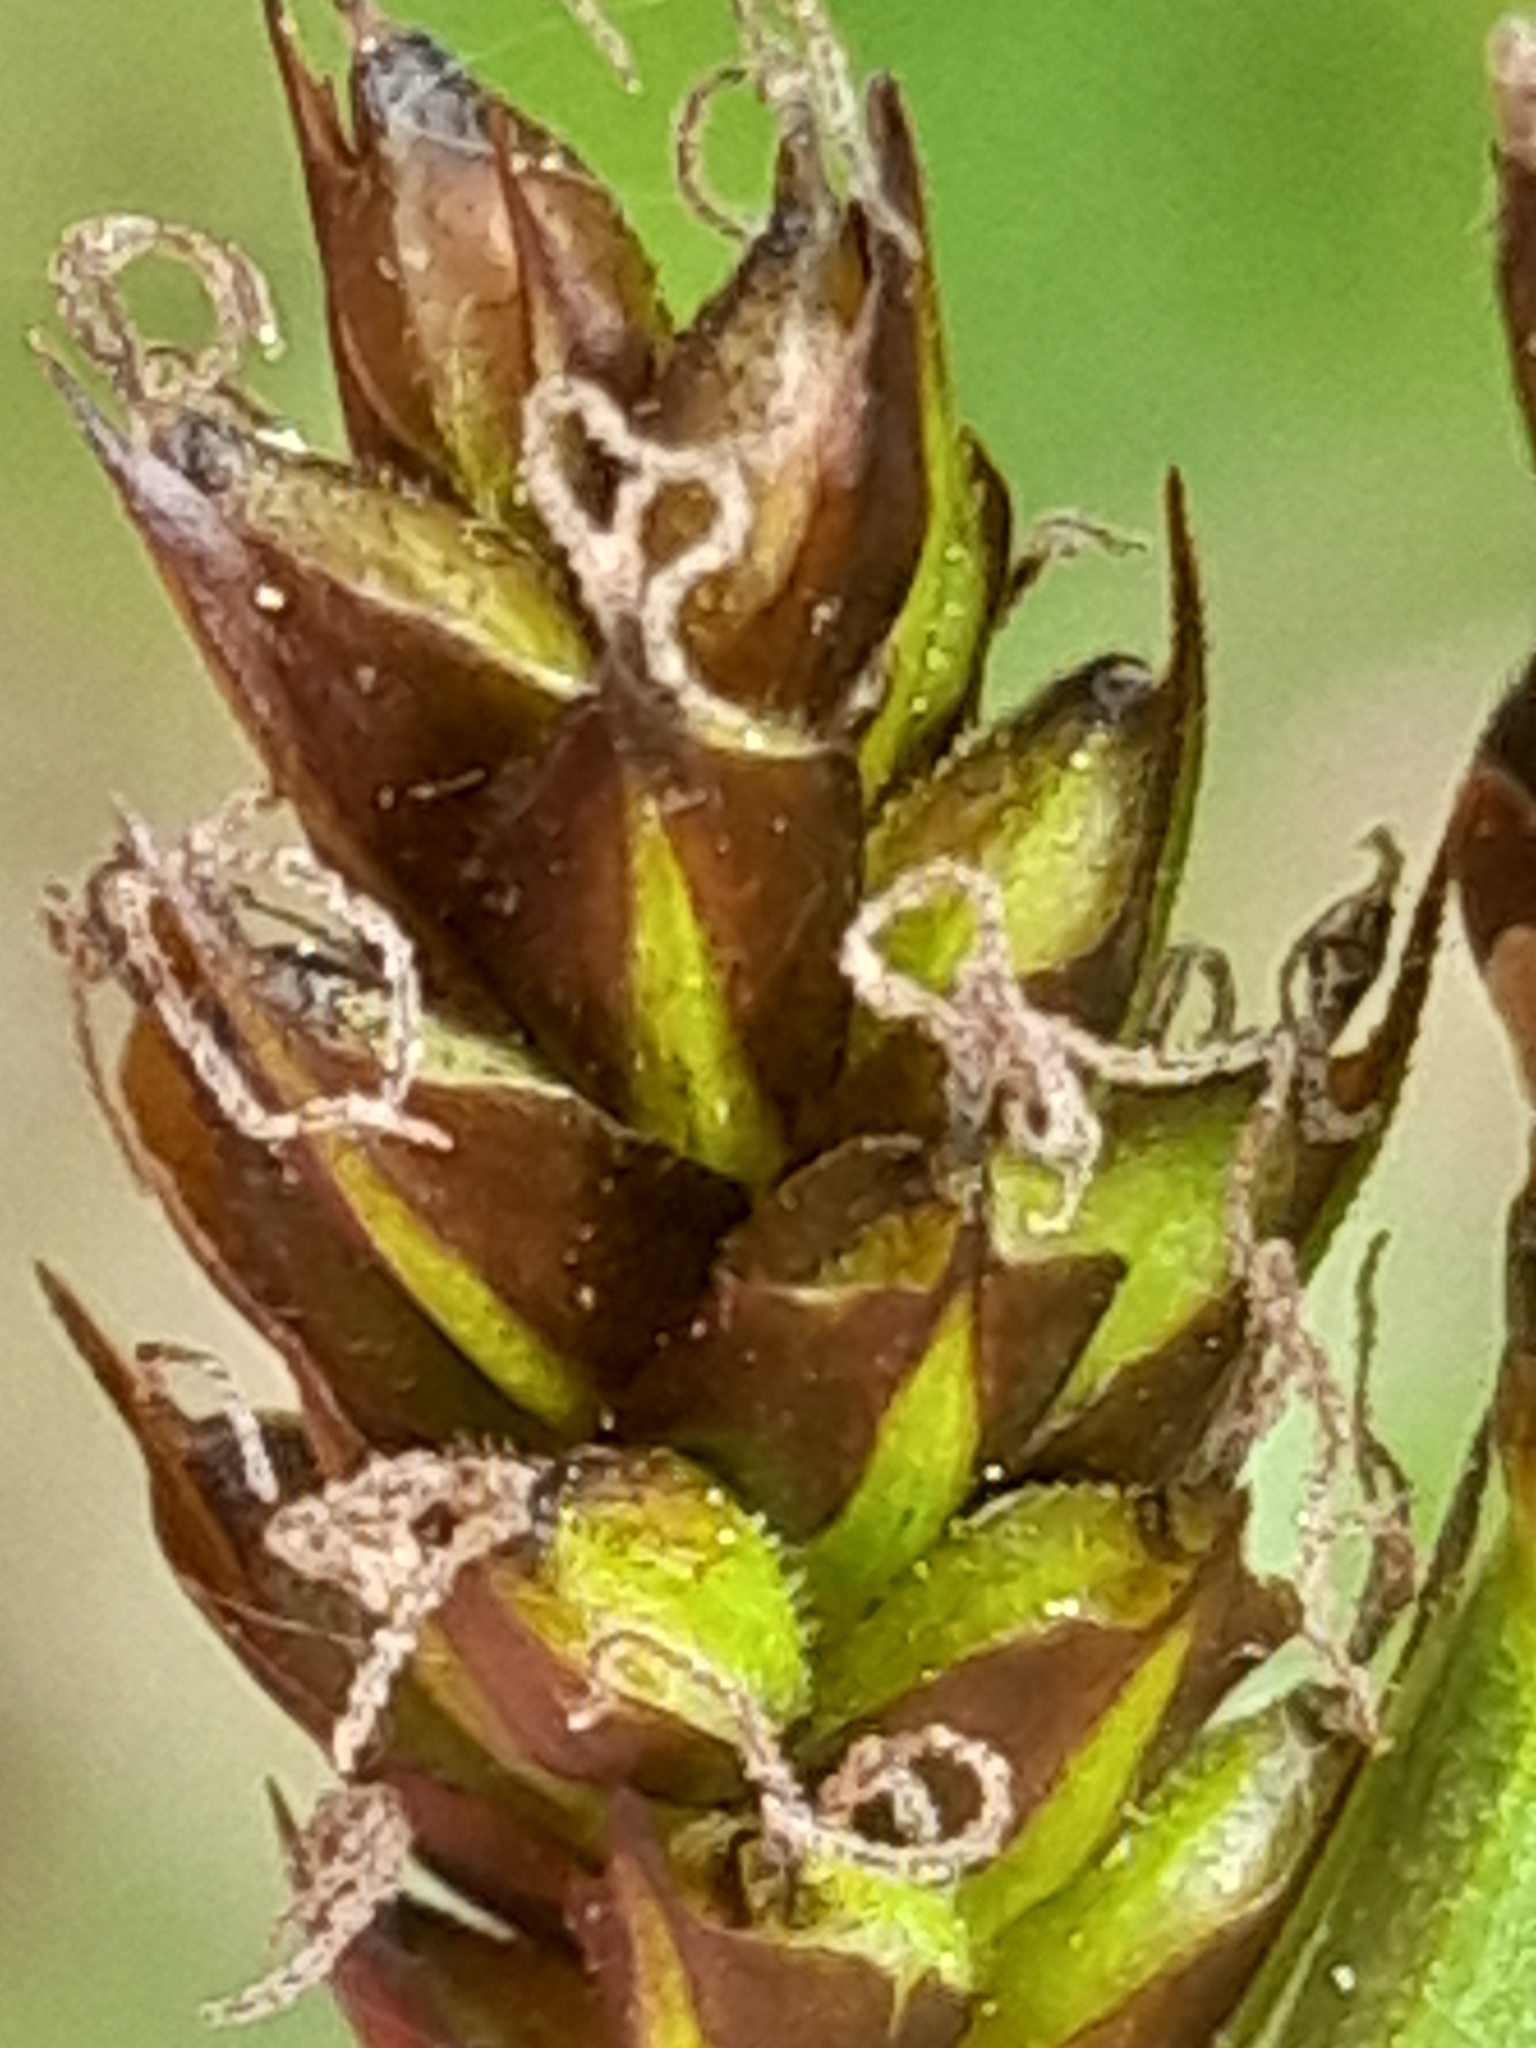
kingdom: Plantae
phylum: Tracheophyta
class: Liliopsida
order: Poales
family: Cyperaceae
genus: Carex
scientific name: Carex caryophyllea
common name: Spring sedge
